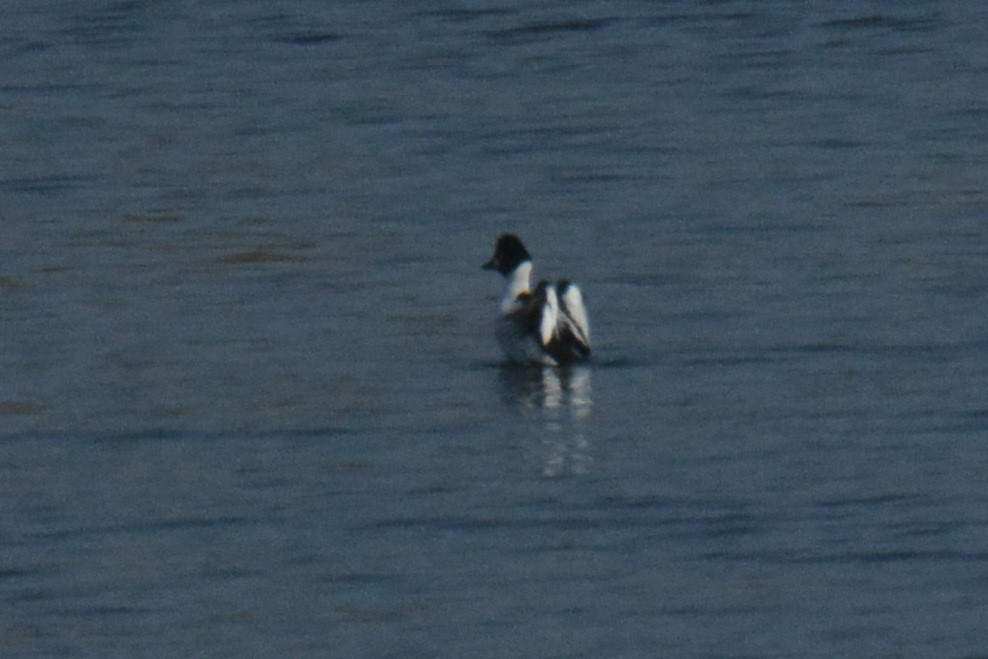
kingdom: Animalia
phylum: Chordata
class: Aves
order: Anseriformes
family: Anatidae
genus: Bucephala
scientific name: Bucephala clangula
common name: Common goldeneye
